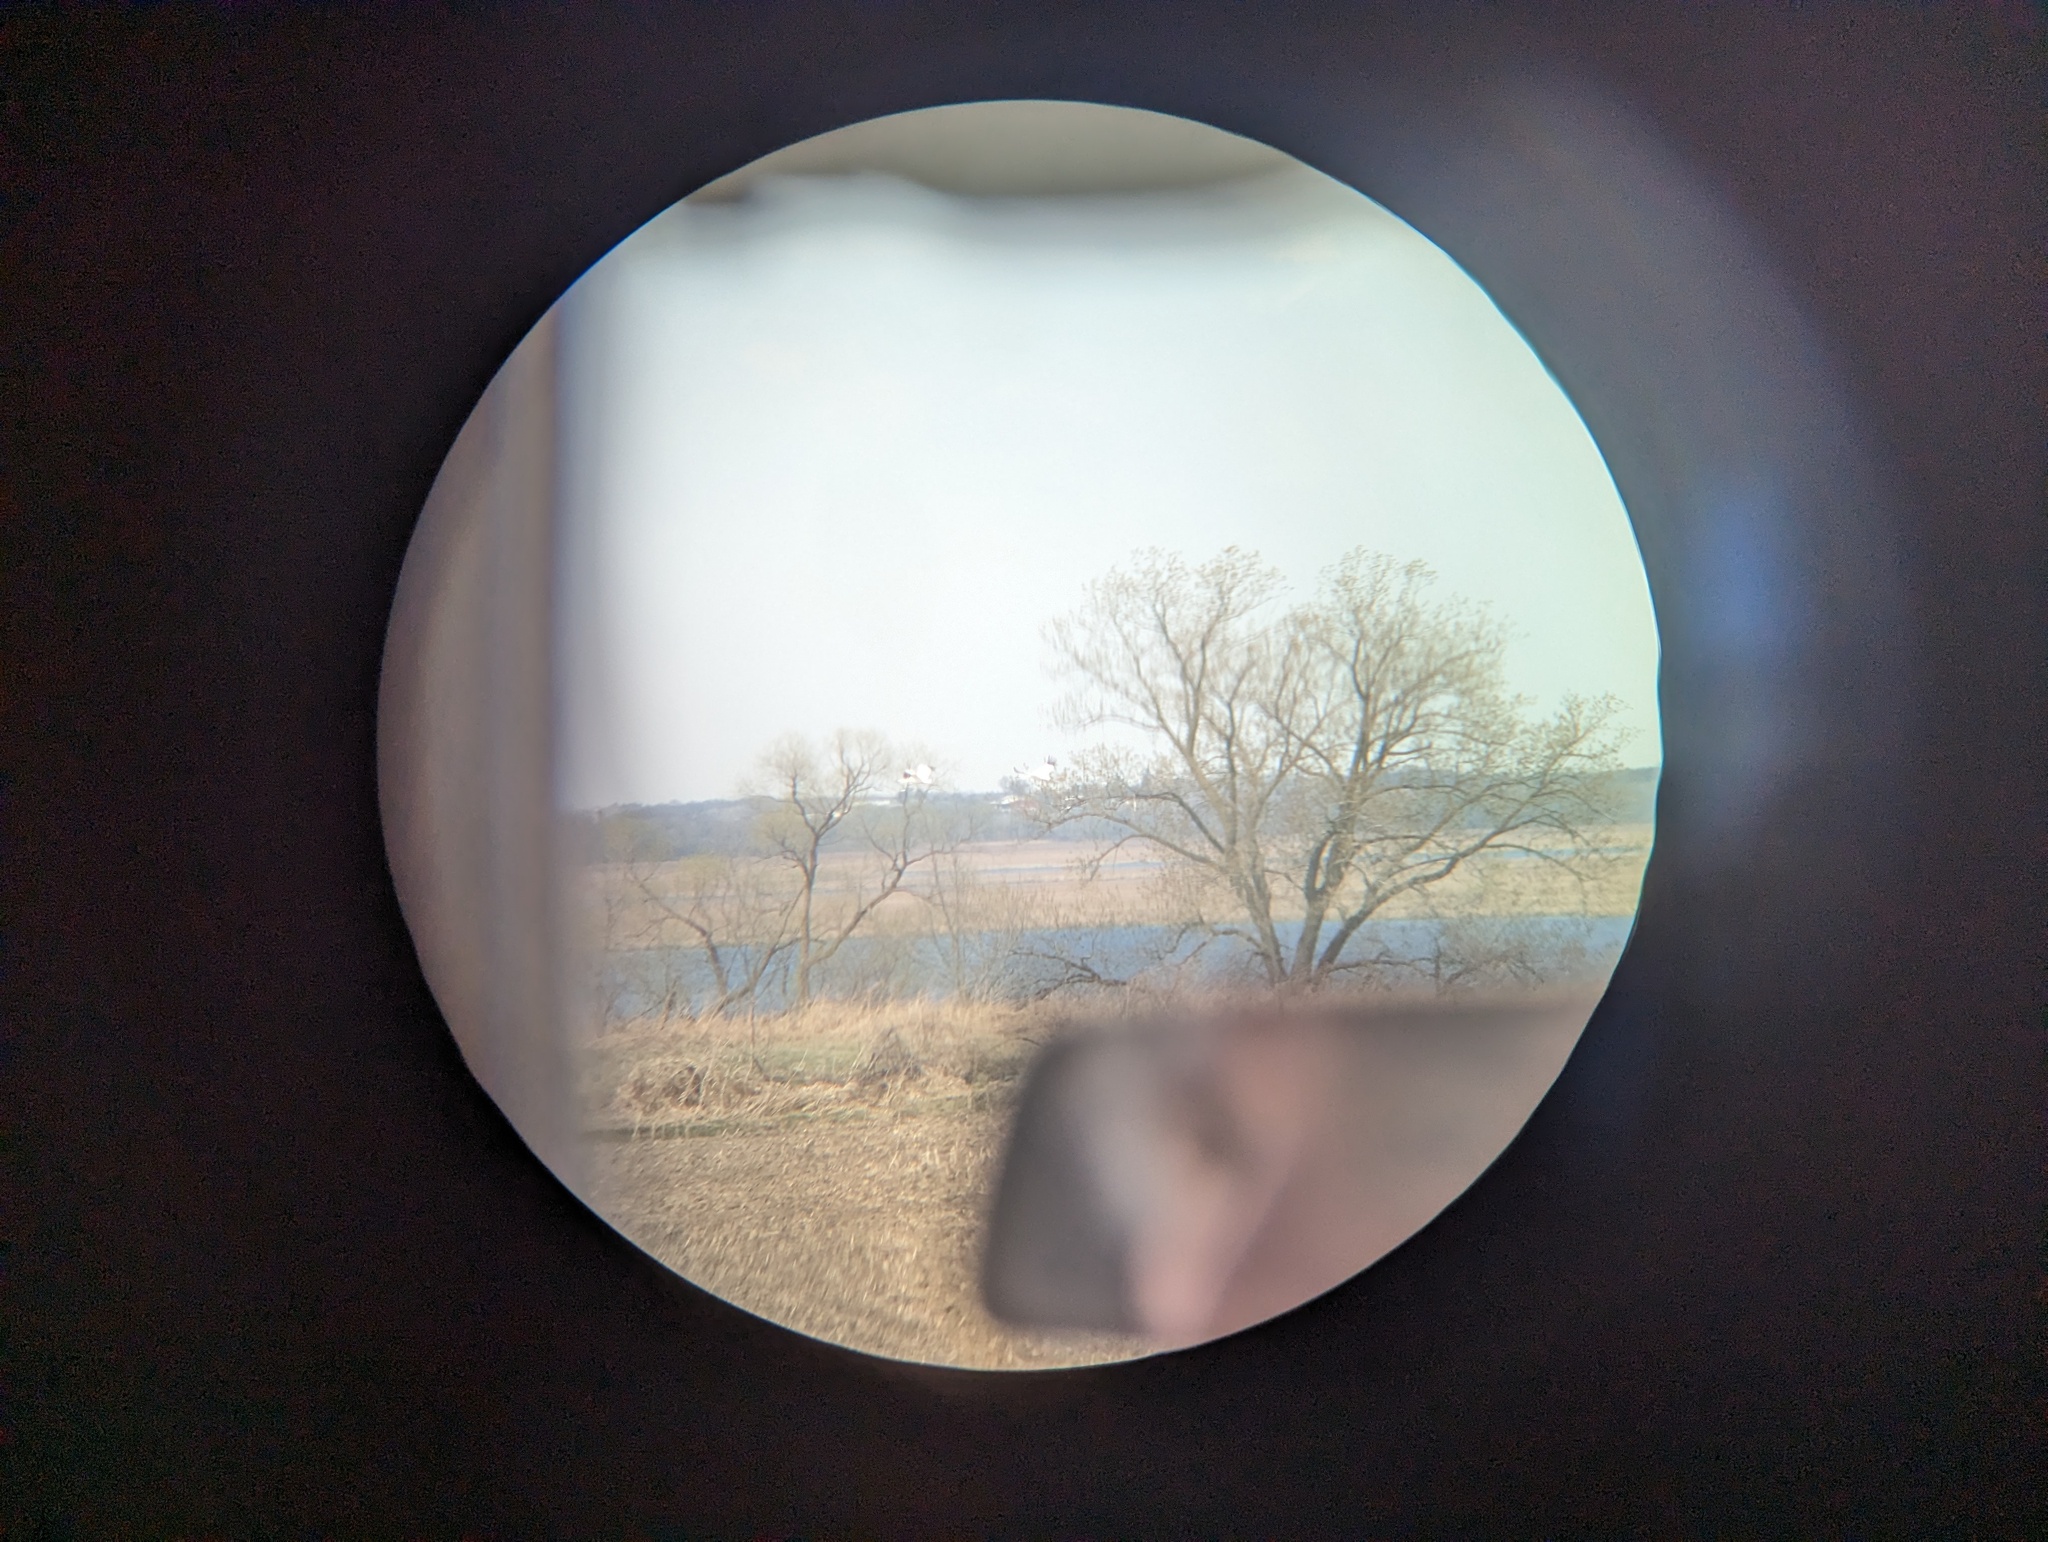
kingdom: Animalia
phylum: Chordata
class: Aves
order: Gruiformes
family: Gruidae
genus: Grus
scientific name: Grus americana
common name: Whooping crane
